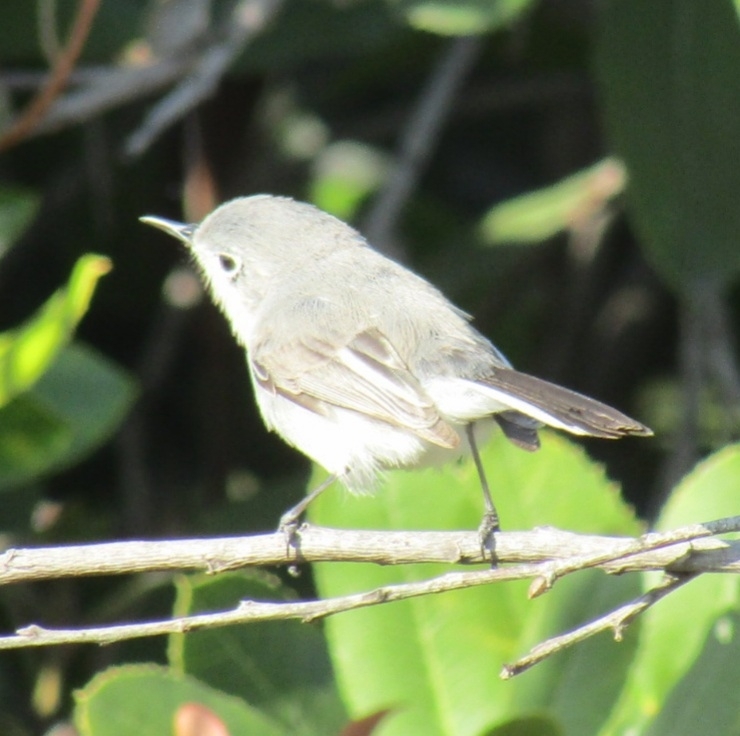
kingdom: Animalia
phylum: Chordata
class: Aves
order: Passeriformes
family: Polioptilidae
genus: Polioptila
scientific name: Polioptila caerulea
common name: Blue-gray gnatcatcher
